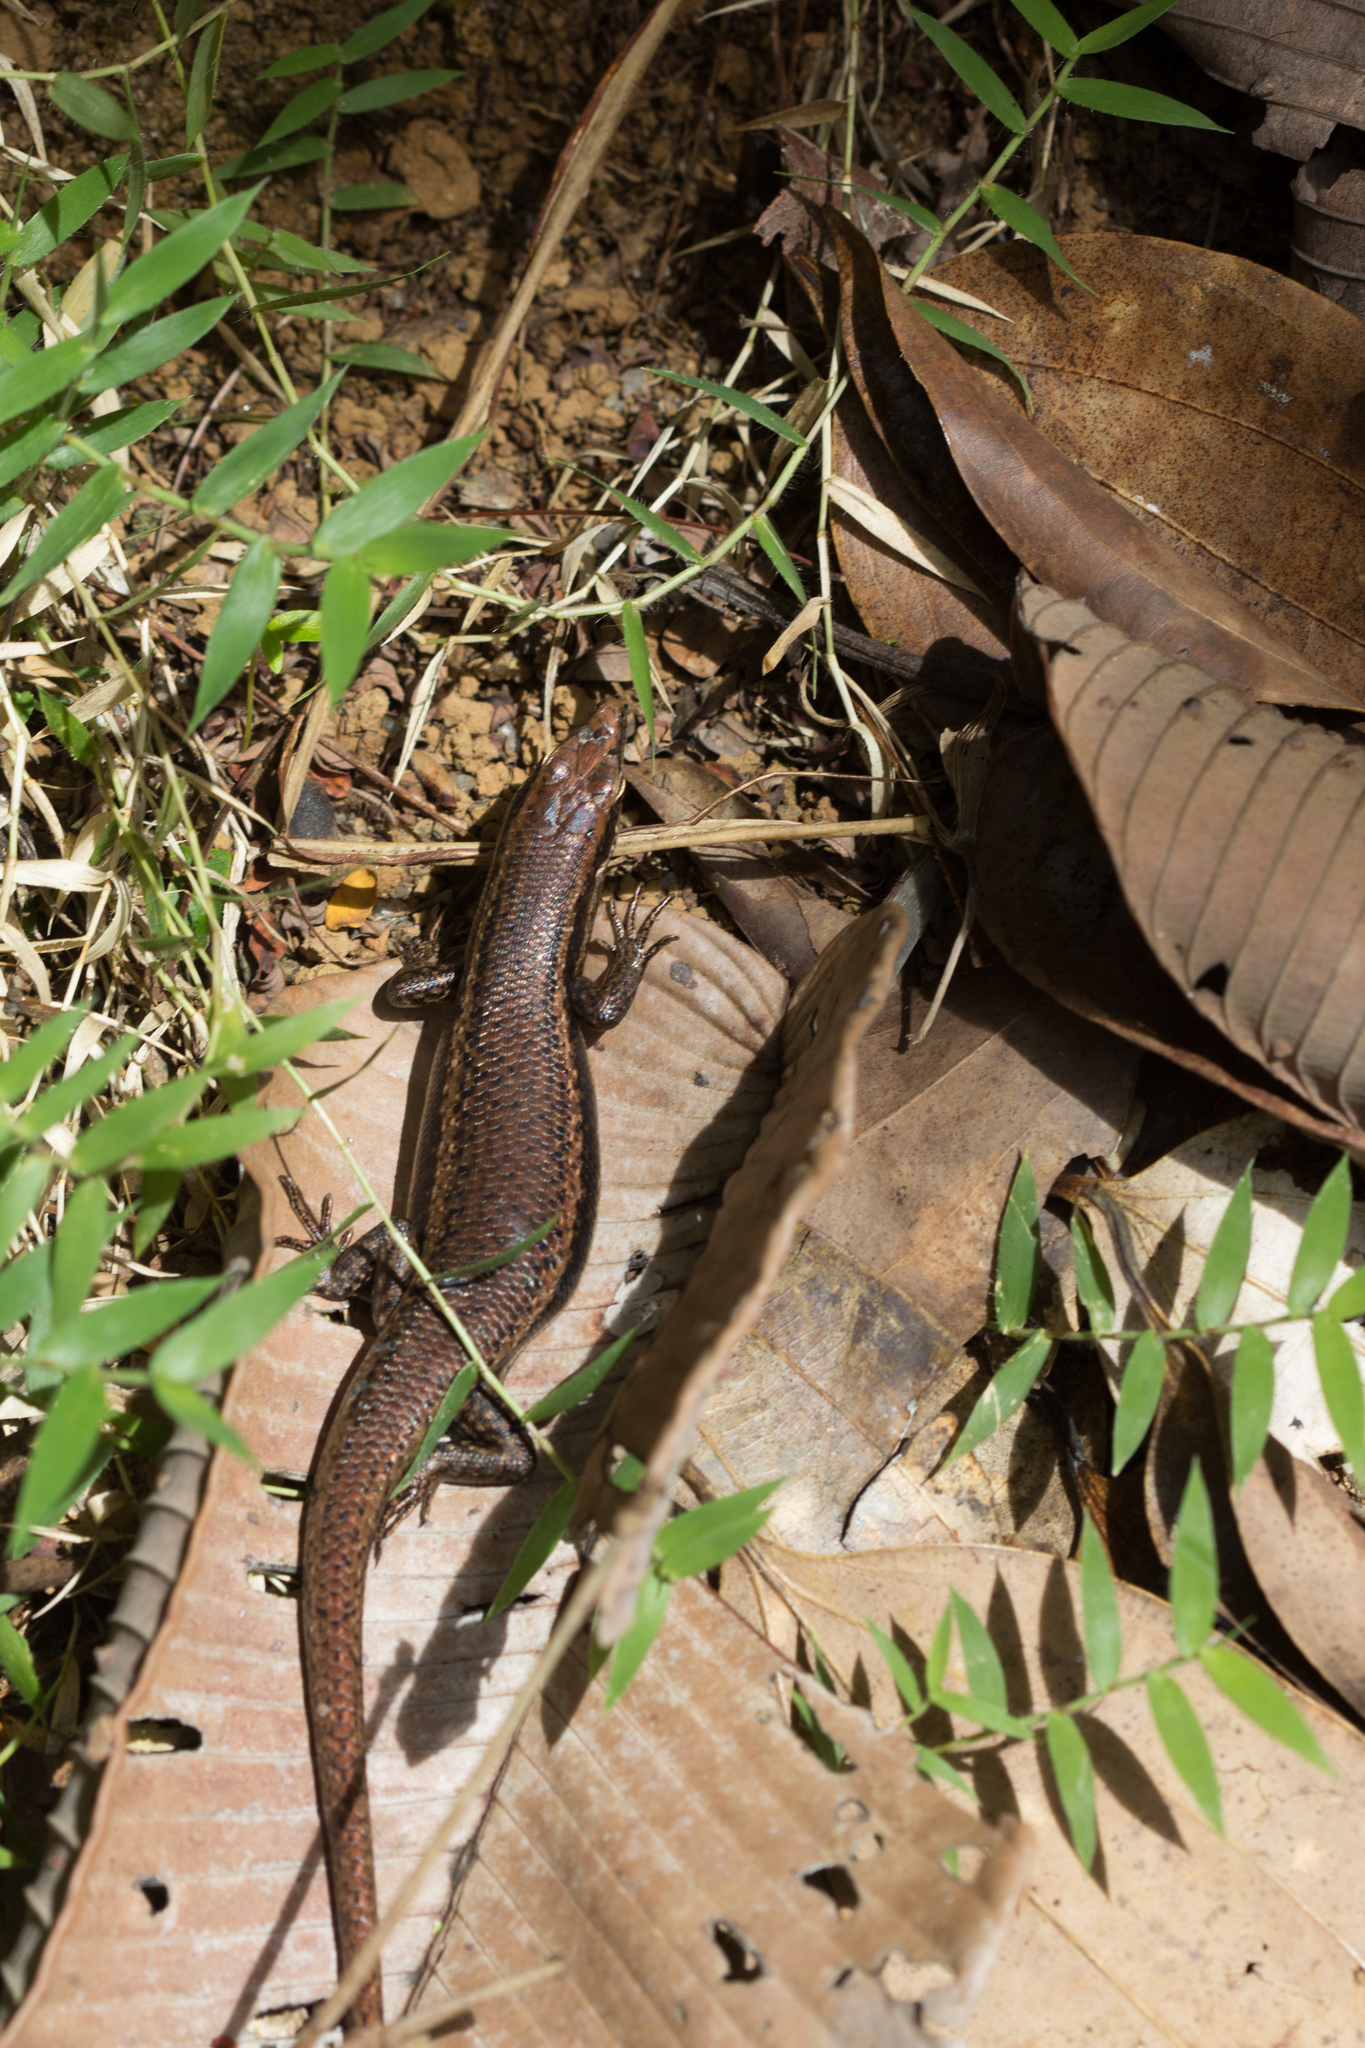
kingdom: Animalia
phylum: Chordata
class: Squamata
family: Scincidae
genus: Trachylepis
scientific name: Trachylepis sechellensis
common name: Seychelles skink
